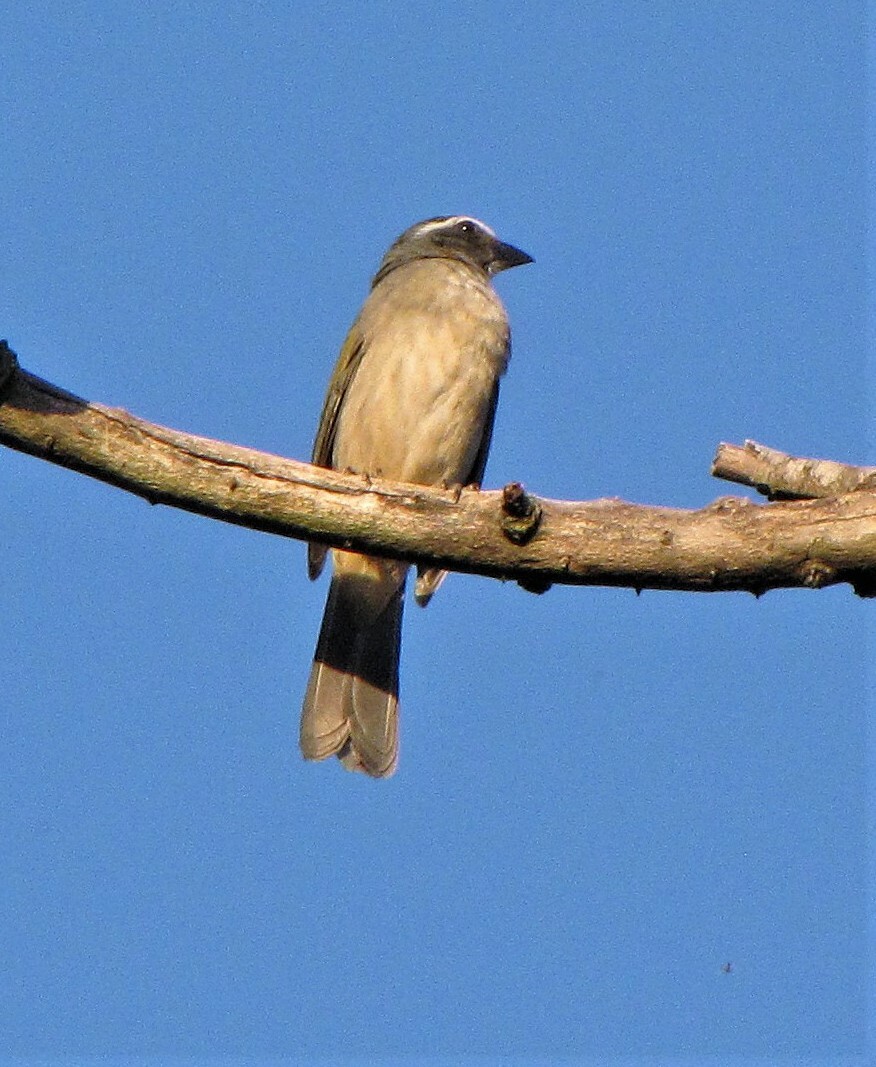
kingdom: Animalia
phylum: Chordata
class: Aves
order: Passeriformes
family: Thraupidae
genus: Saltator
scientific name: Saltator similis
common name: Green-winged saltator
